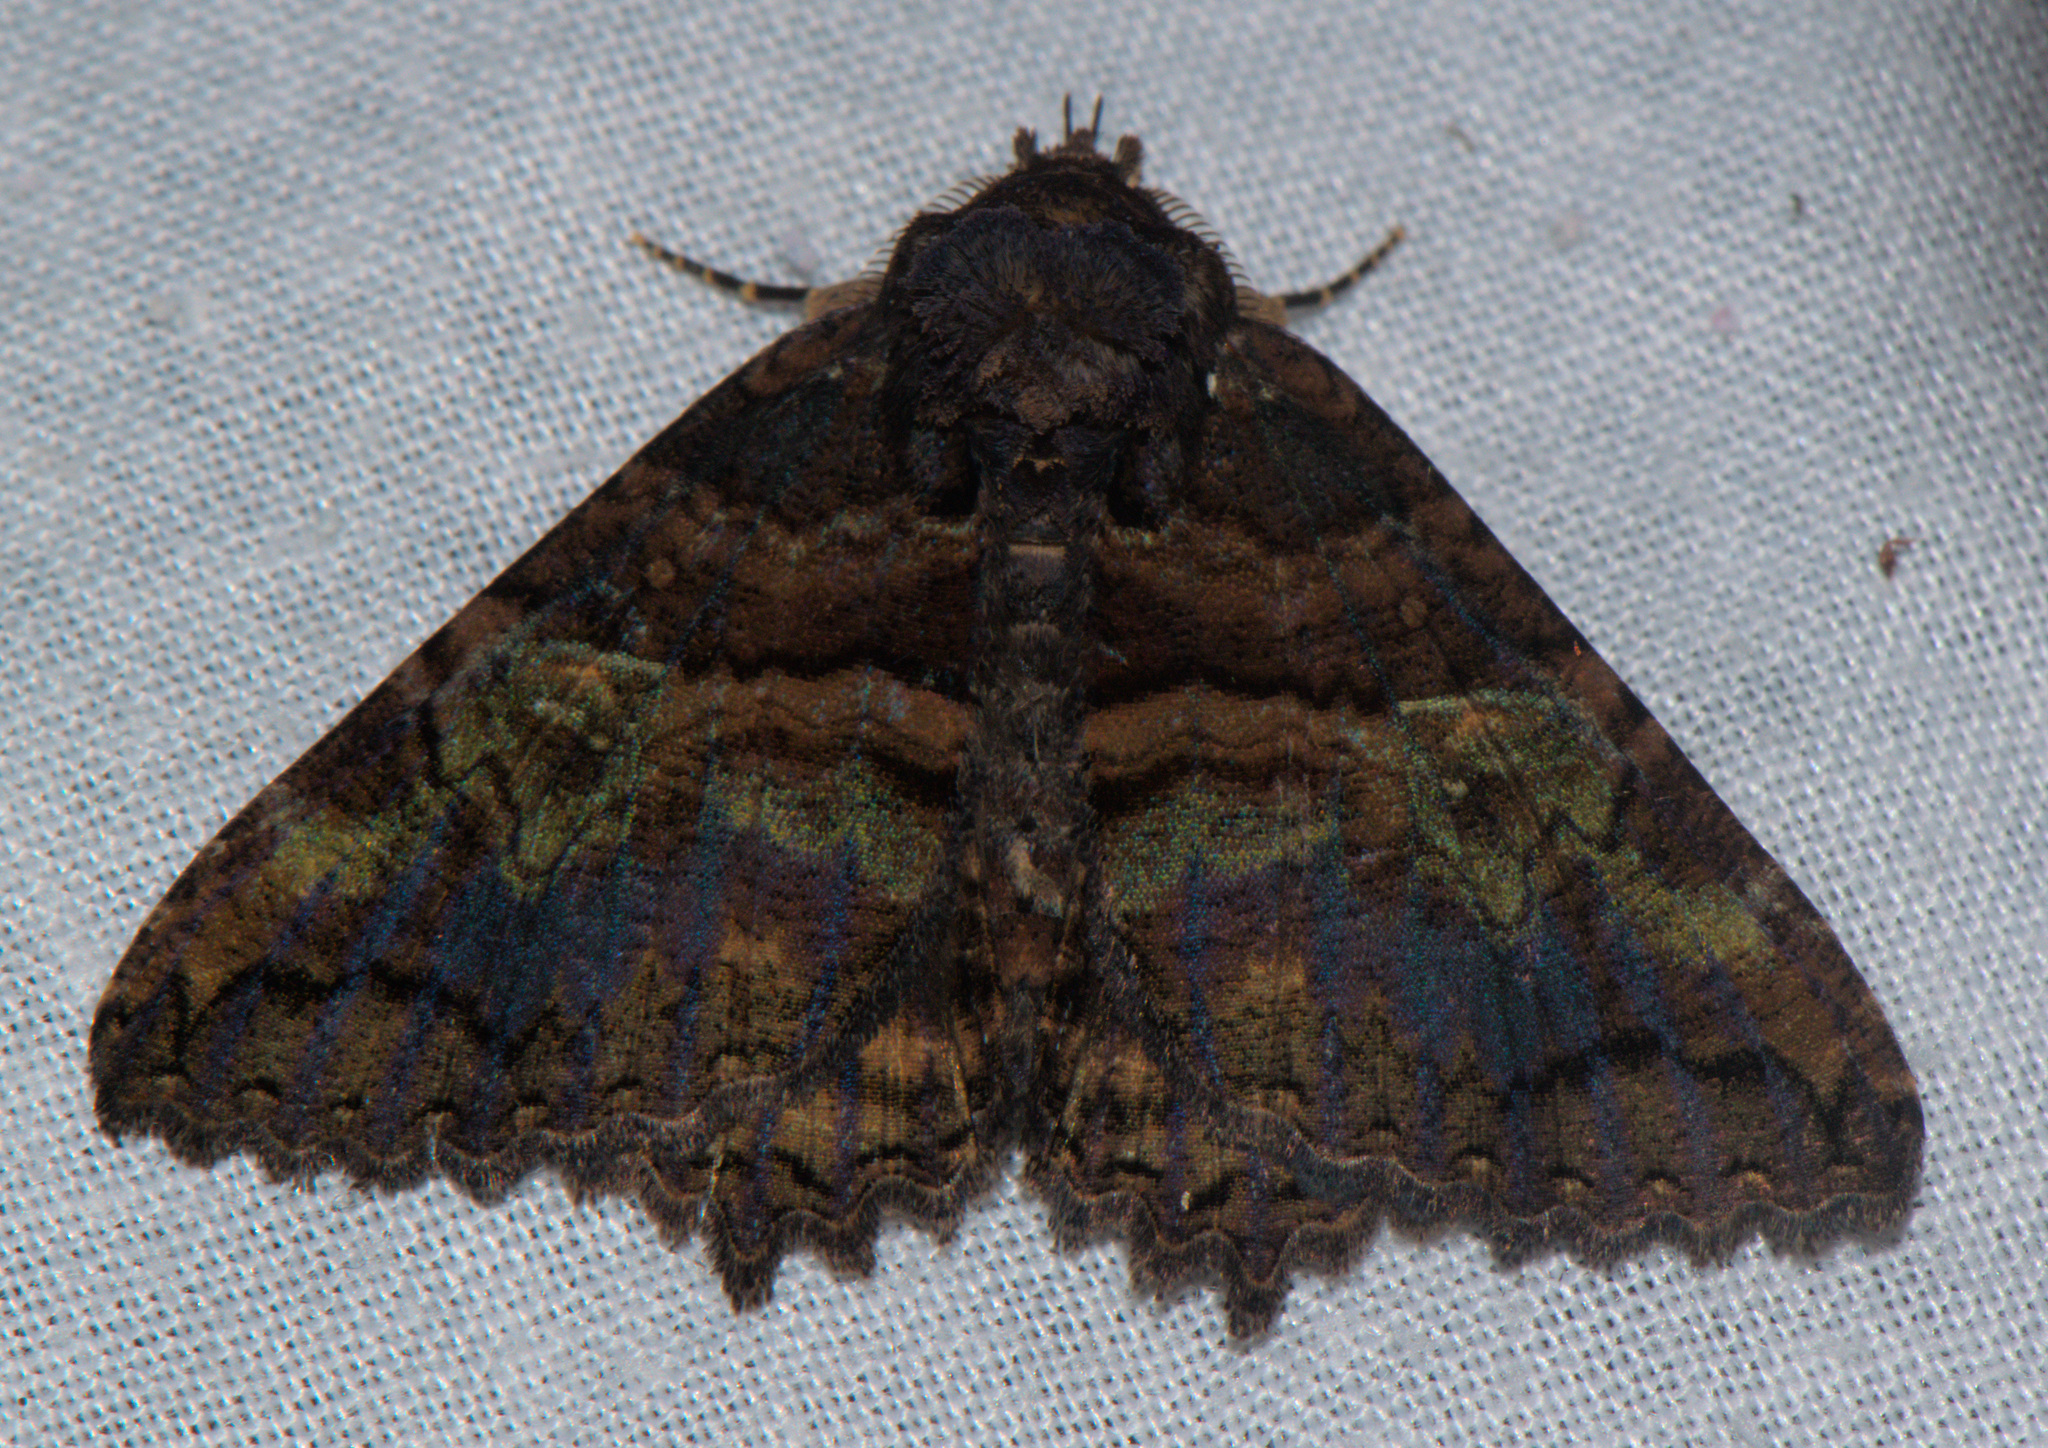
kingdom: Animalia
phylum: Arthropoda
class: Insecta
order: Lepidoptera
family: Erebidae
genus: Daddala
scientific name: Daddala lucilla
